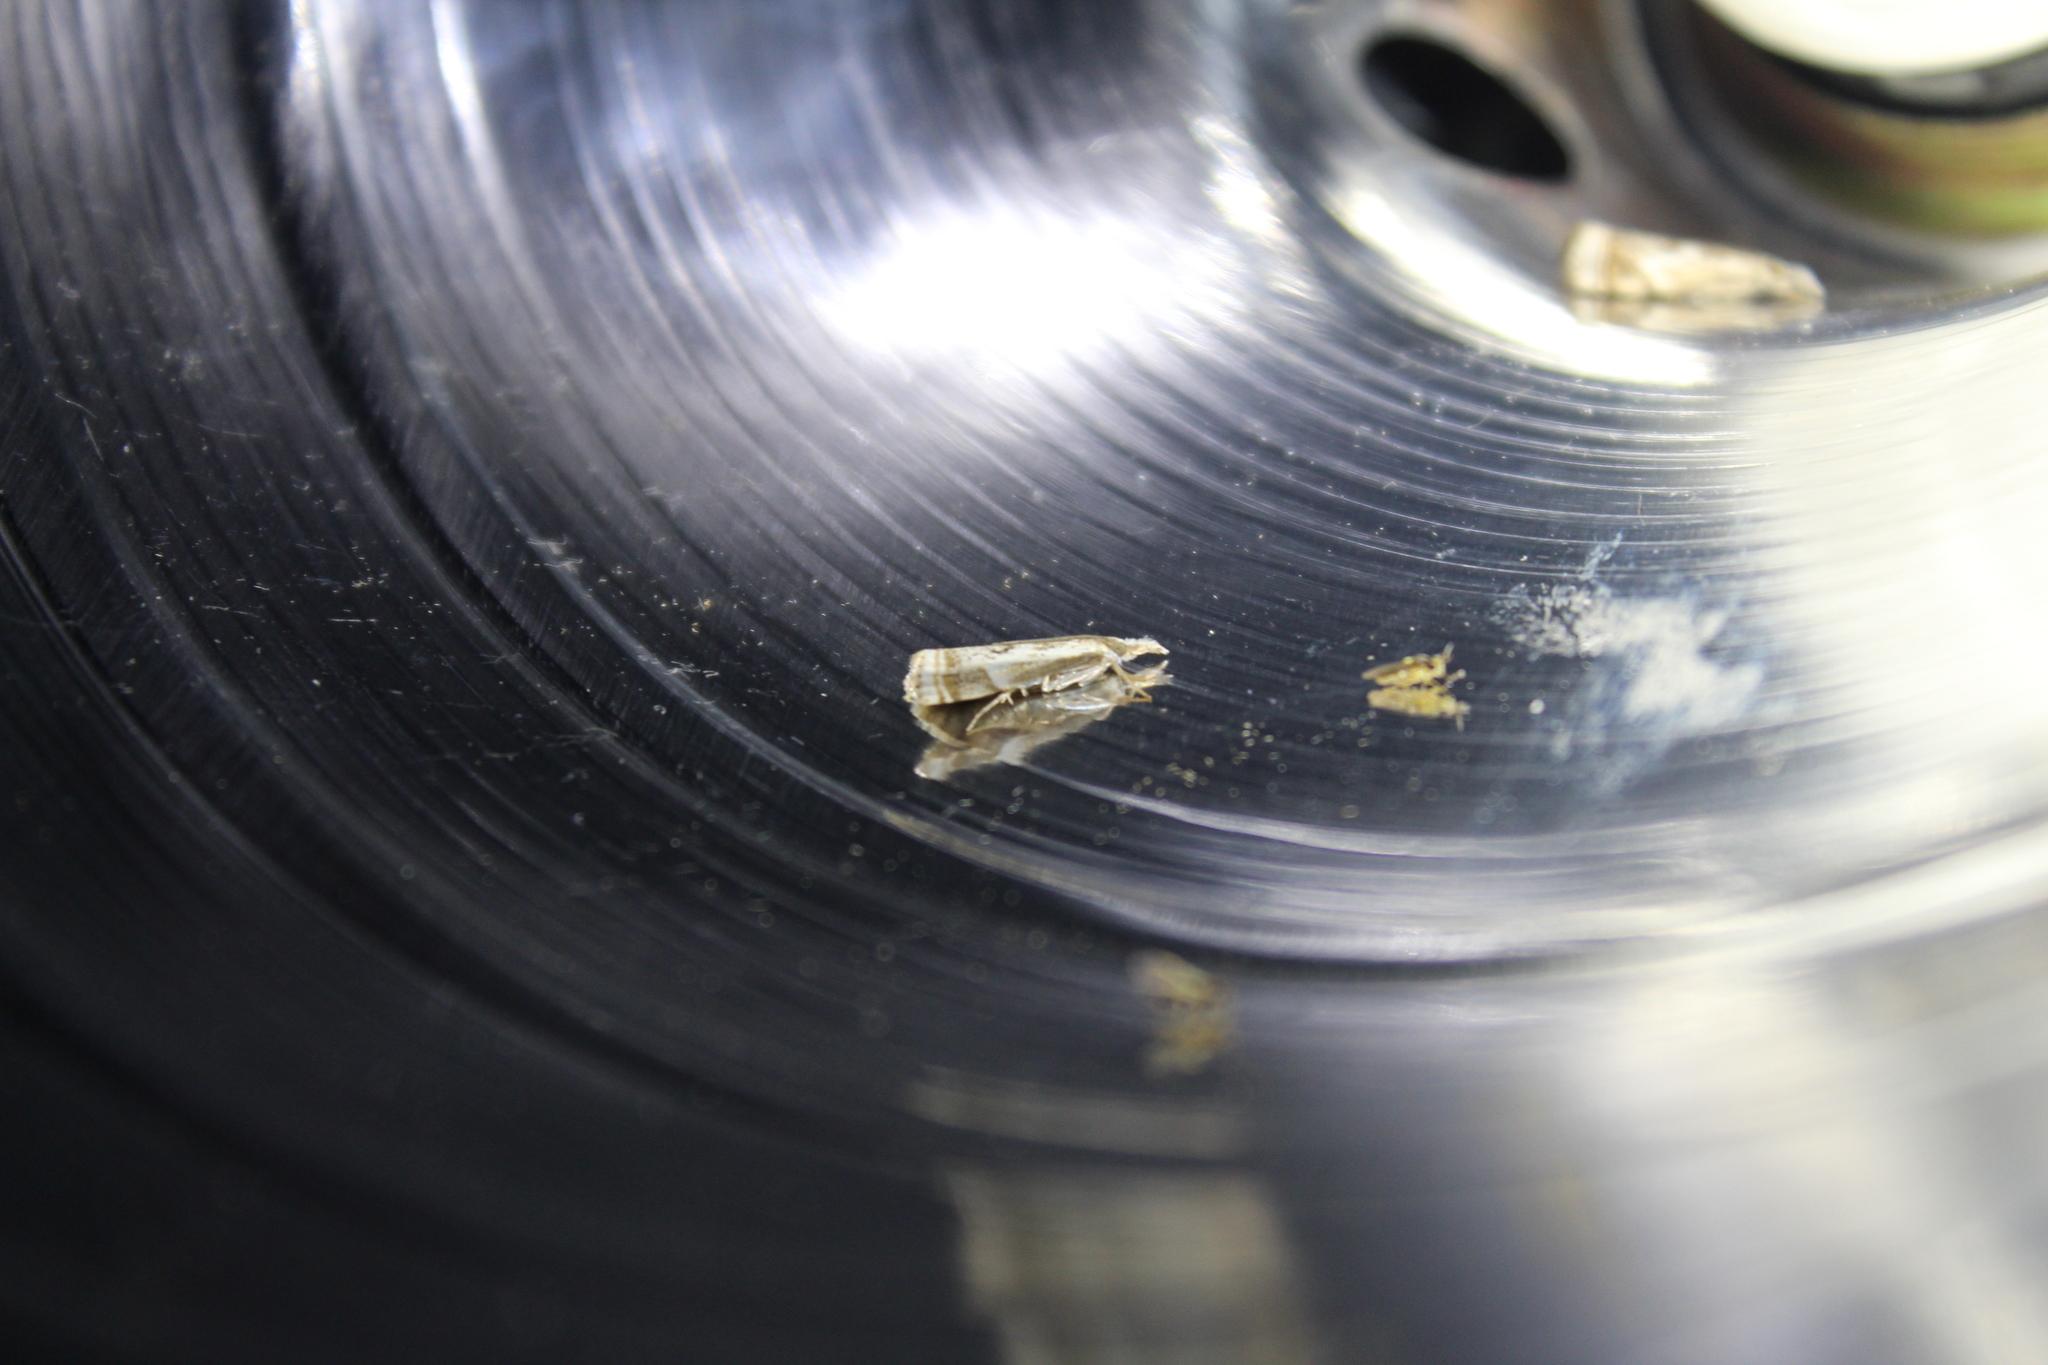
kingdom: Animalia
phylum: Arthropoda
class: Insecta
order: Lepidoptera
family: Crambidae
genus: Microcrambus
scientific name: Microcrambus elegans
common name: Elegant grass-veneer
